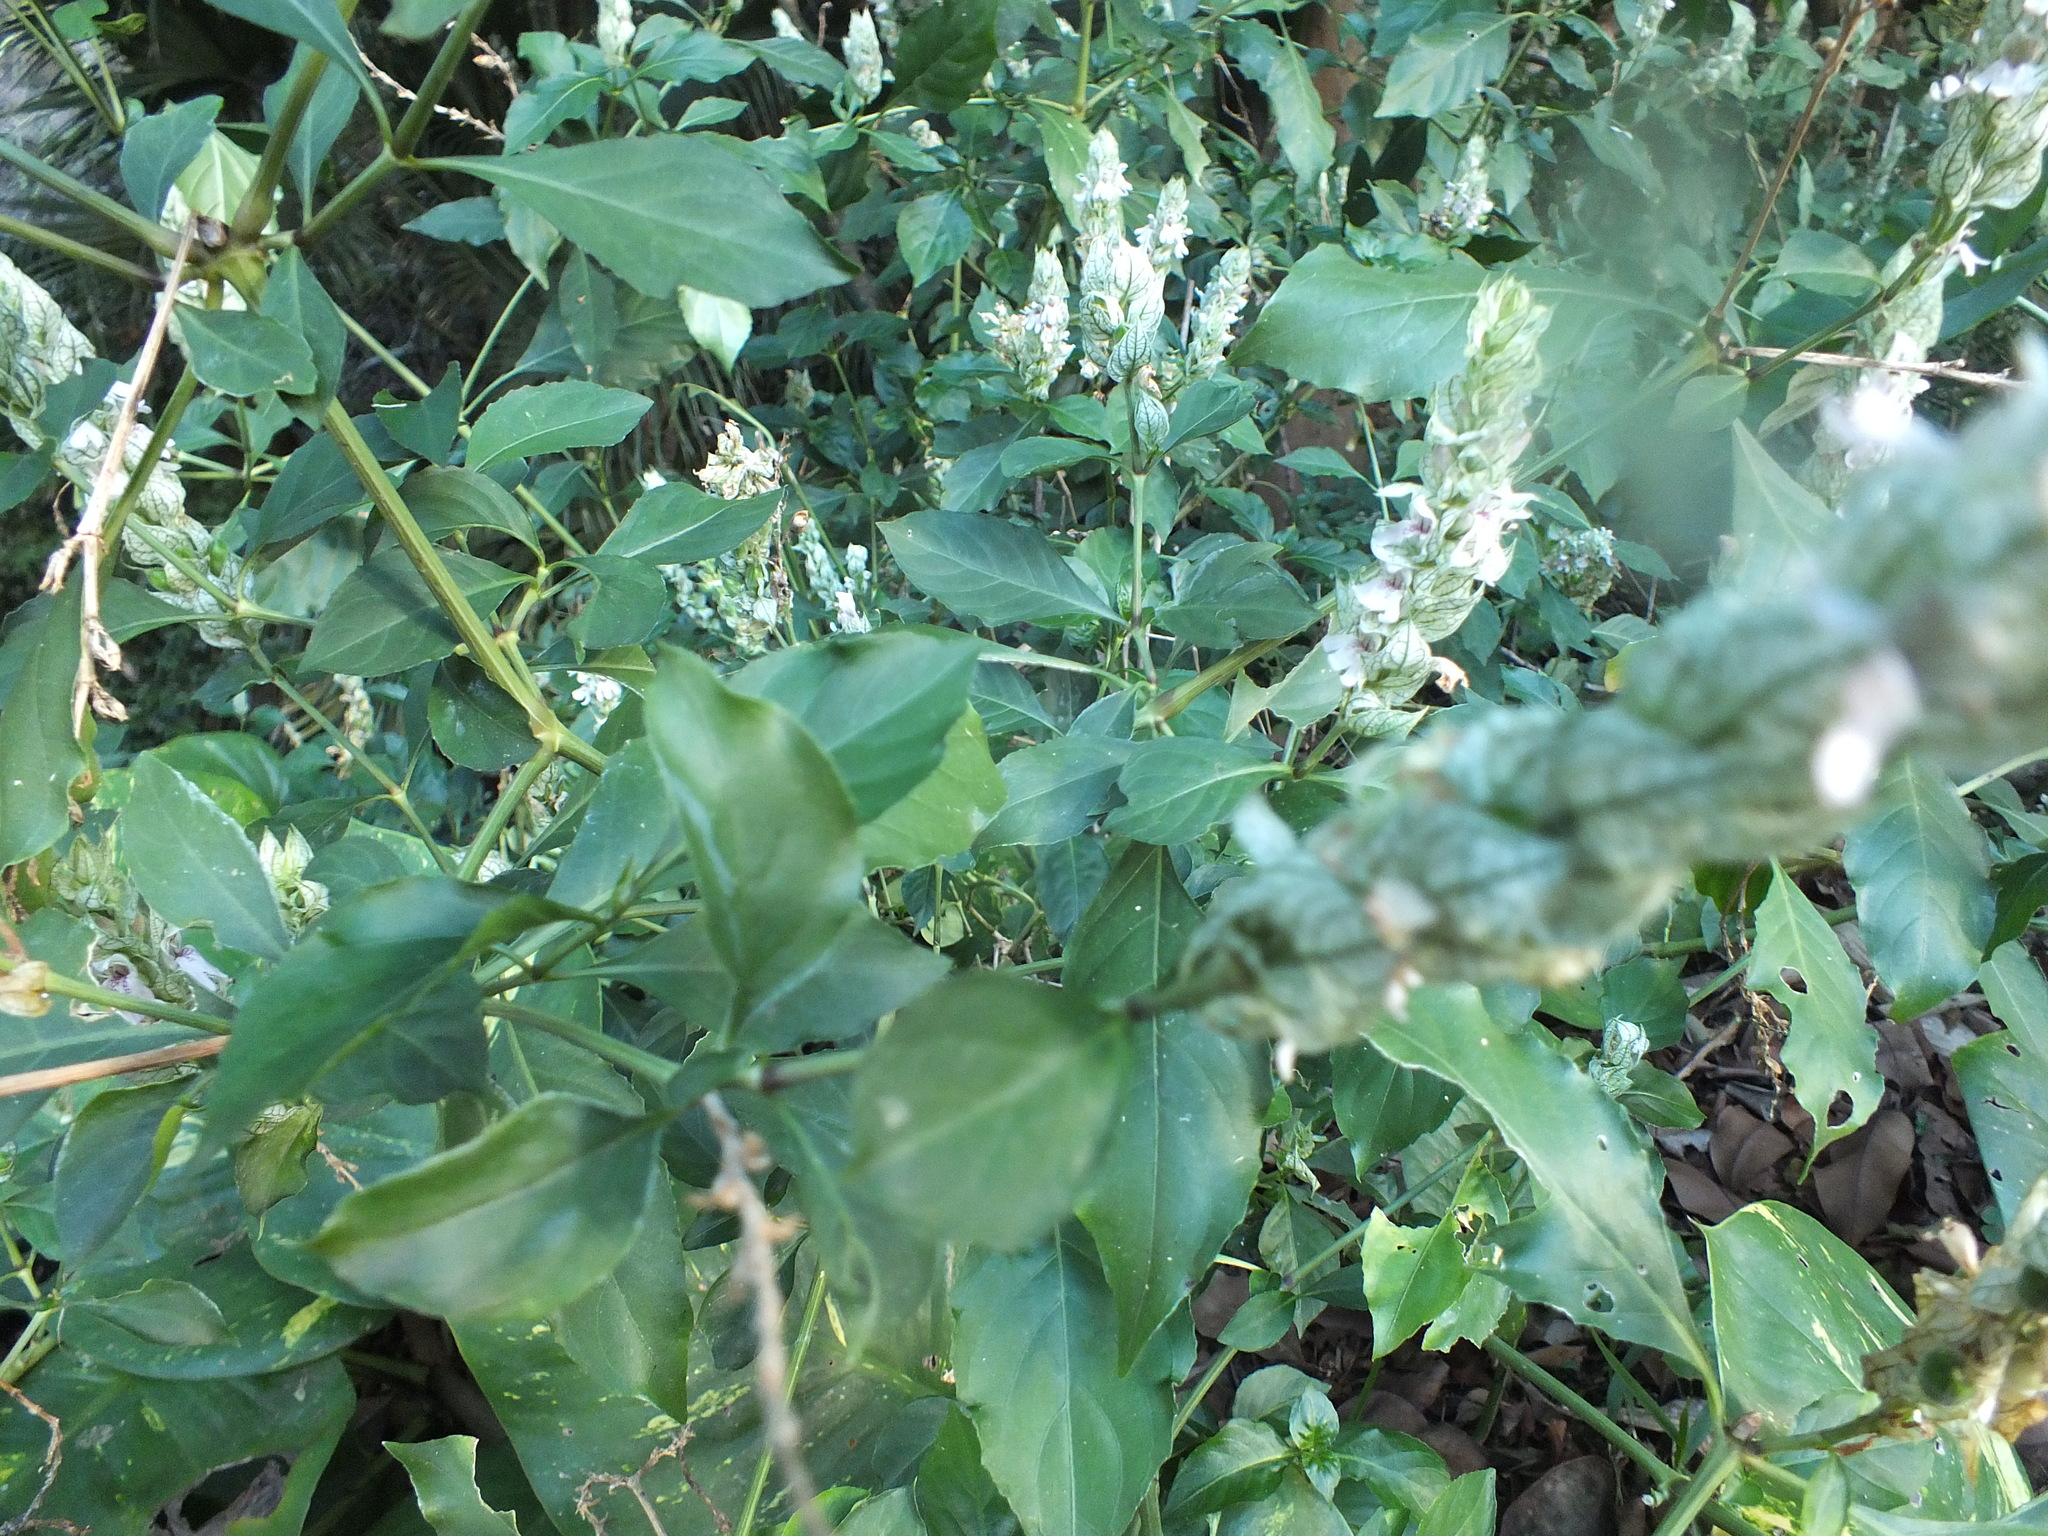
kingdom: Plantae
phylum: Tracheophyta
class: Magnoliopsida
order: Lamiales
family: Acanthaceae
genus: Justicia
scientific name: Justicia betonica
